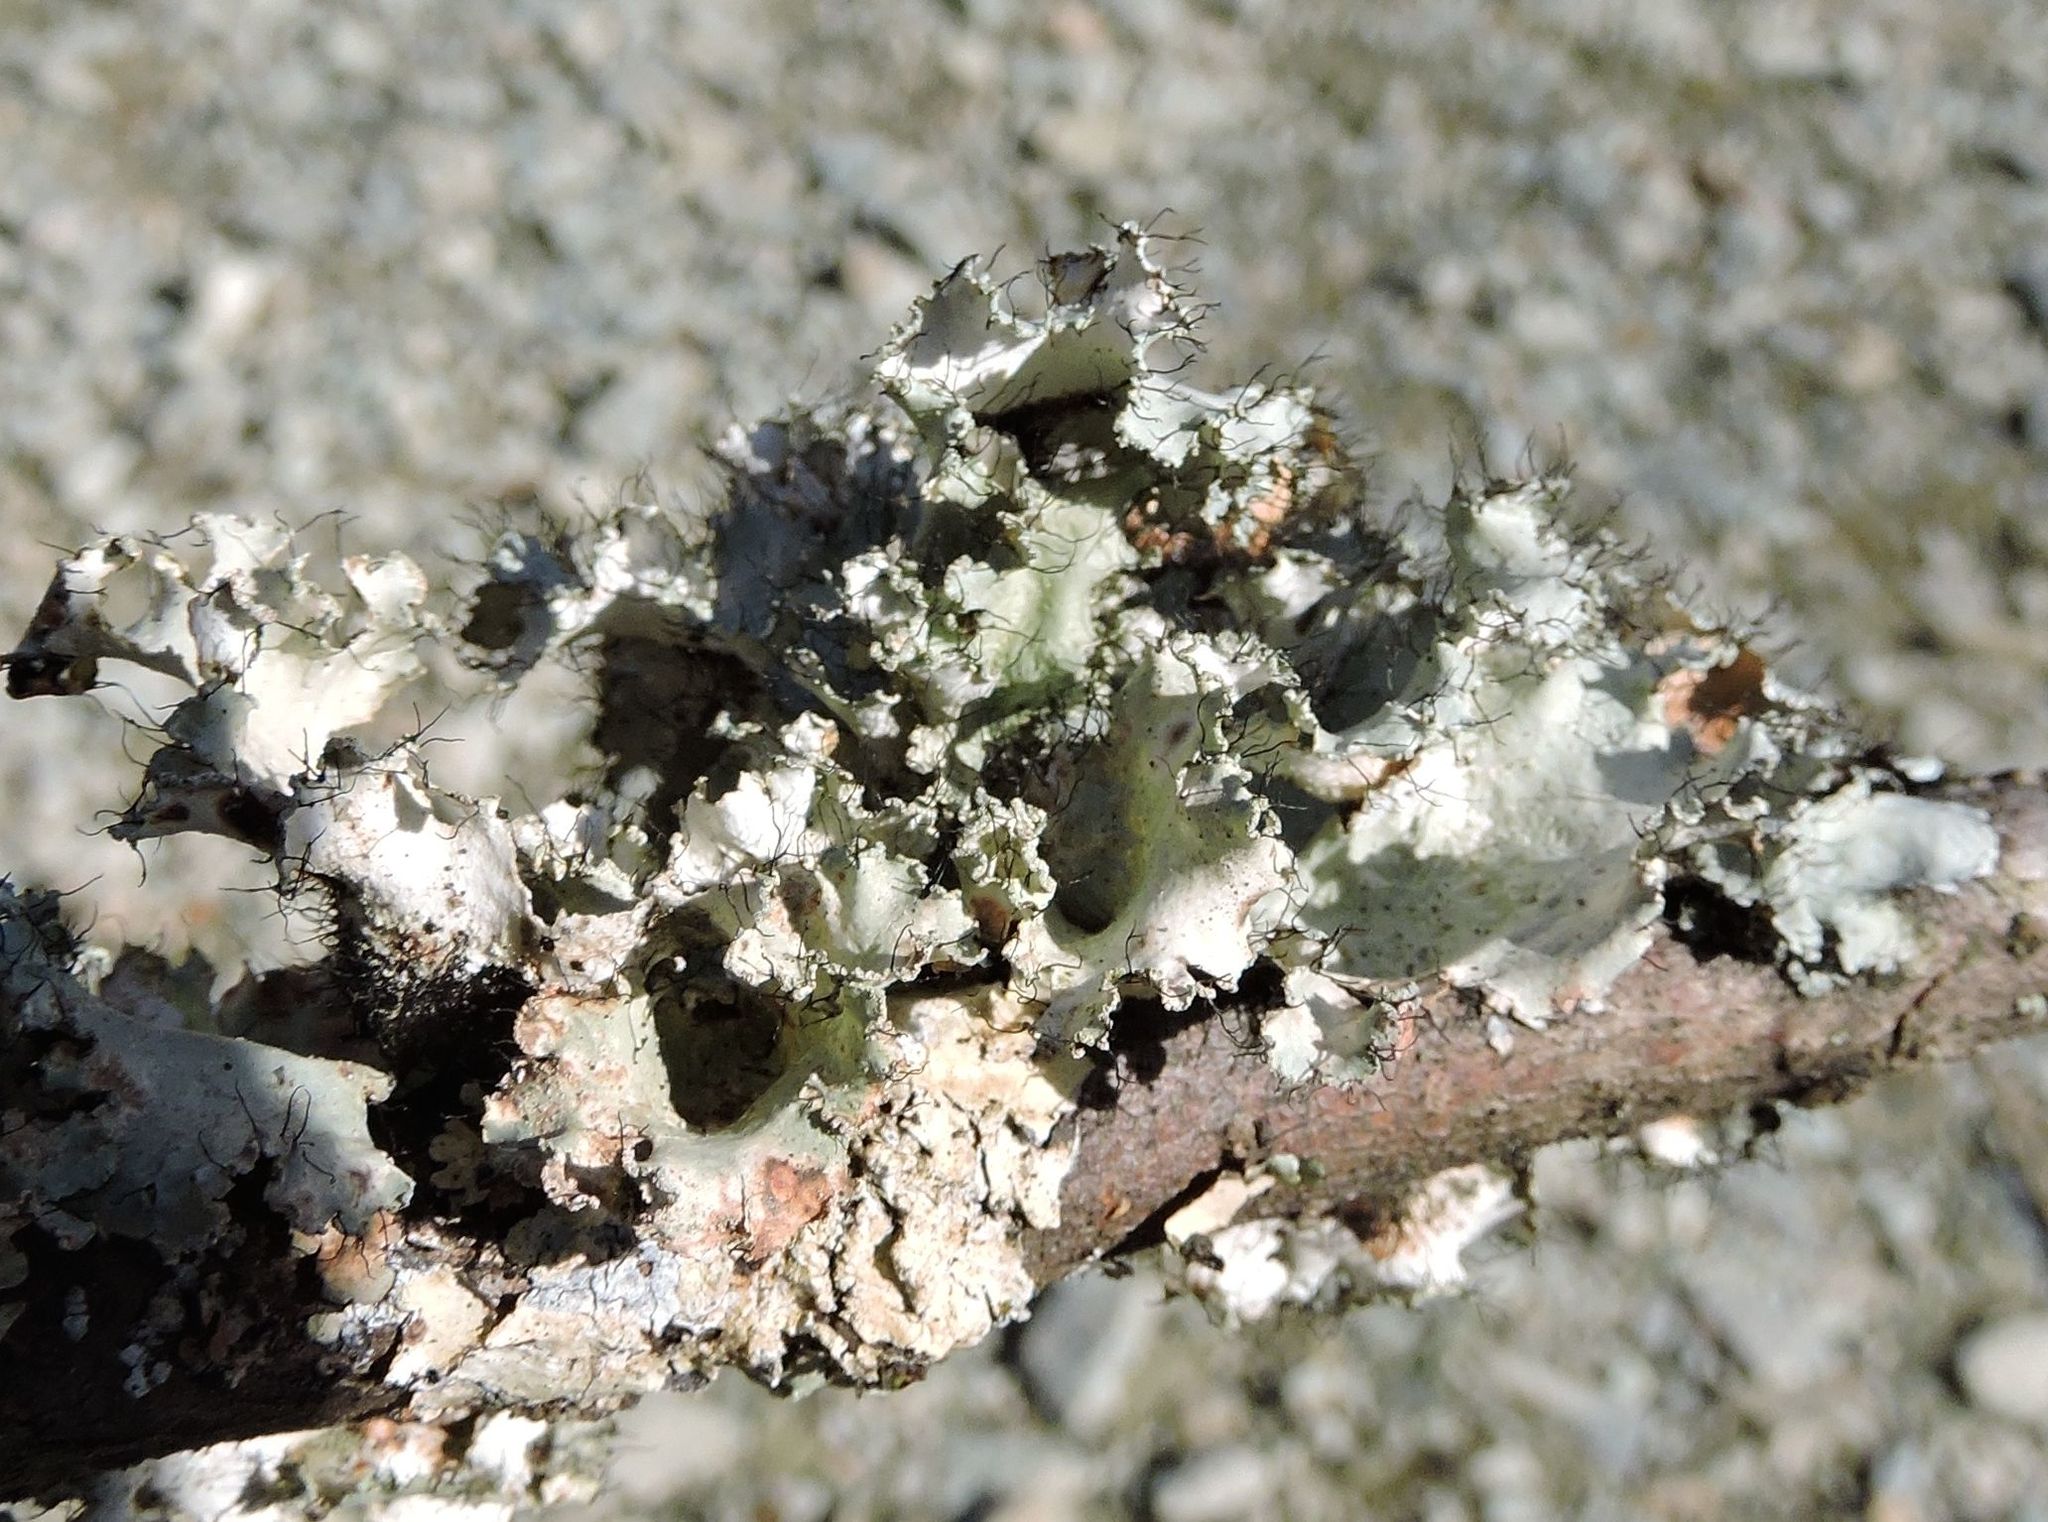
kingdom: Fungi
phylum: Ascomycota
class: Lecanoromycetes
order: Lecanorales
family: Parmeliaceae
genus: Parmotrema
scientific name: Parmotrema hypotropum
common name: Powdered ruffle lichen
